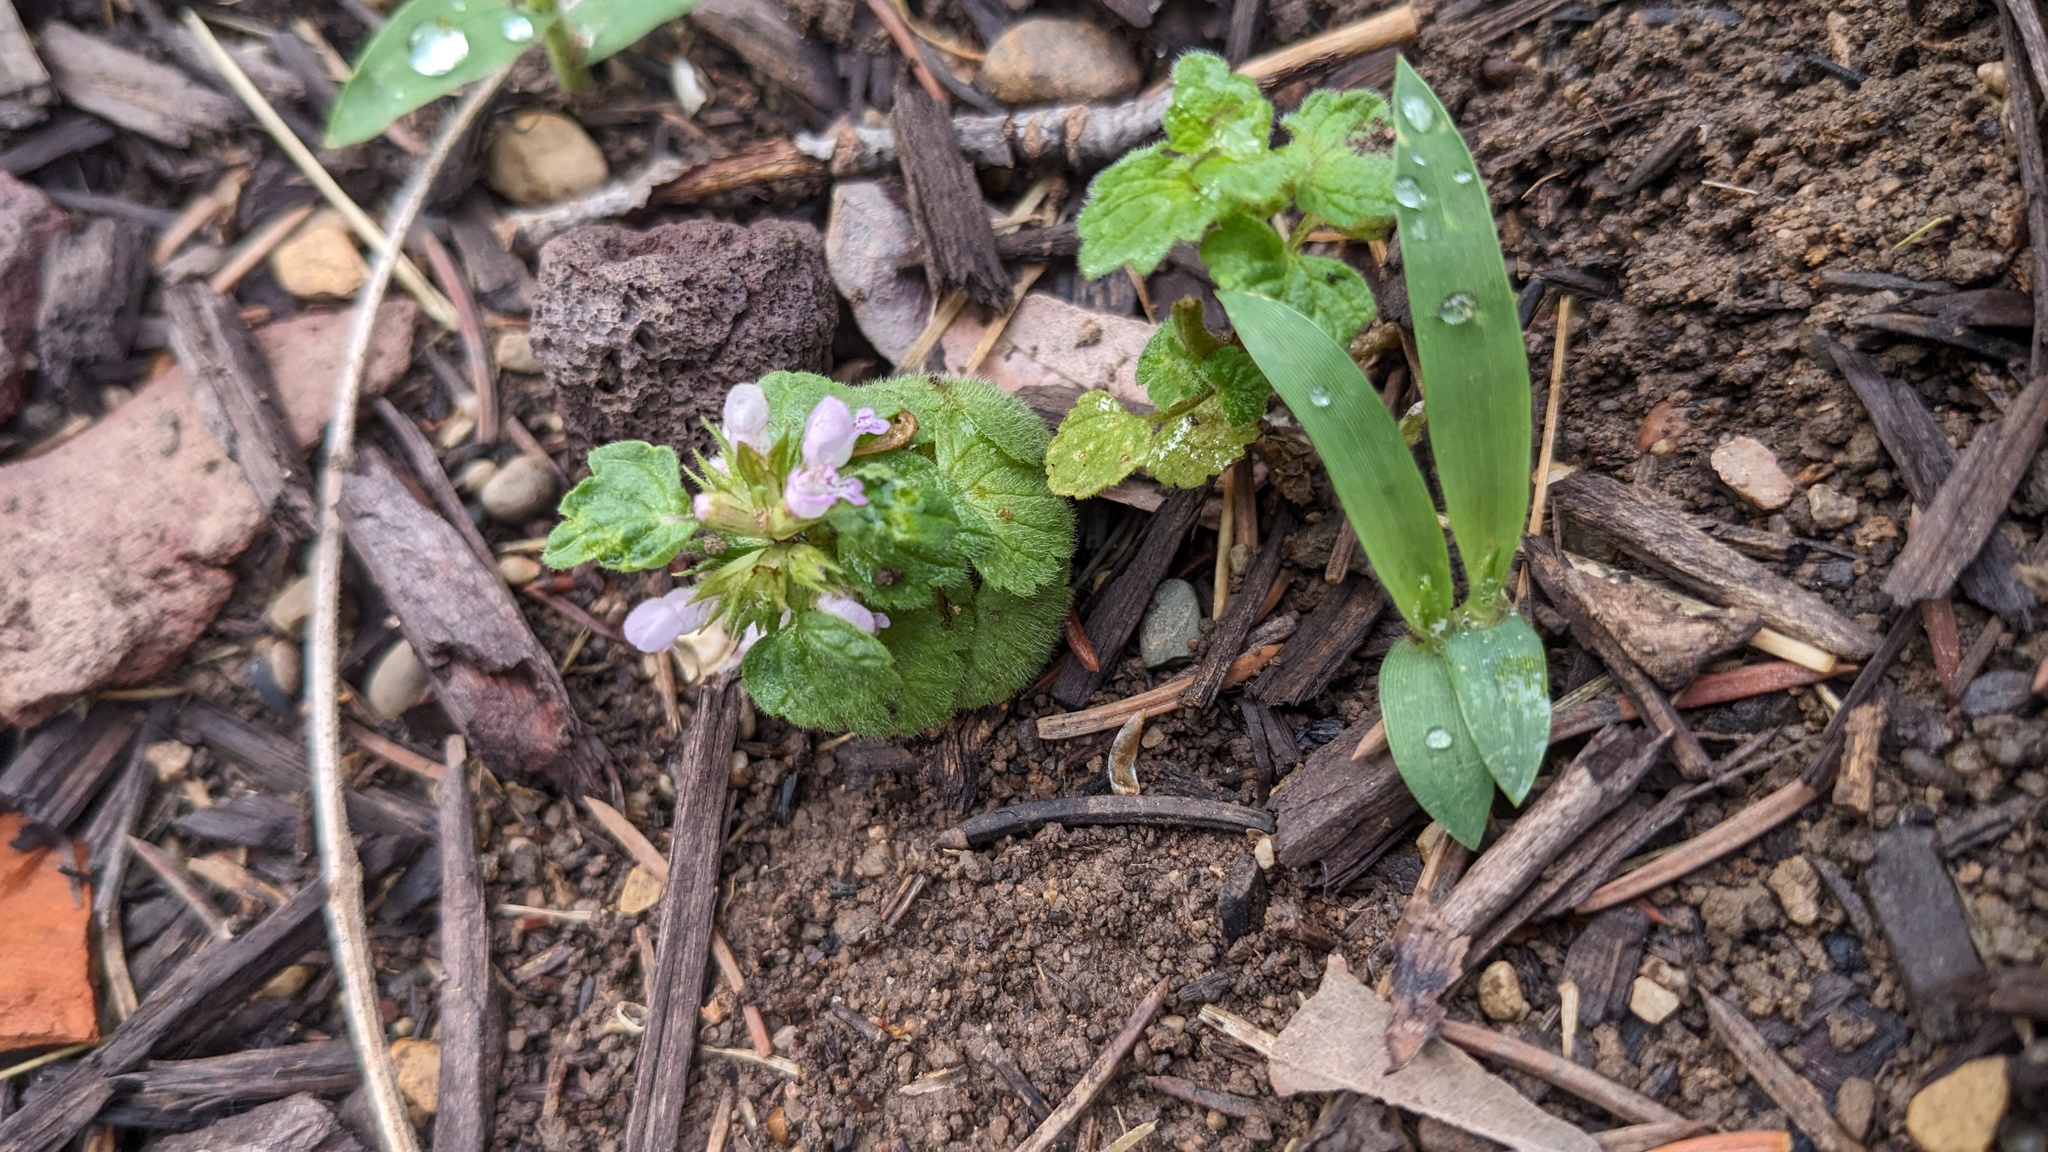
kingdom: Plantae
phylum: Tracheophyta
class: Magnoliopsida
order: Lamiales
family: Lamiaceae
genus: Lamium
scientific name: Lamium purpureum
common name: Red dead-nettle
